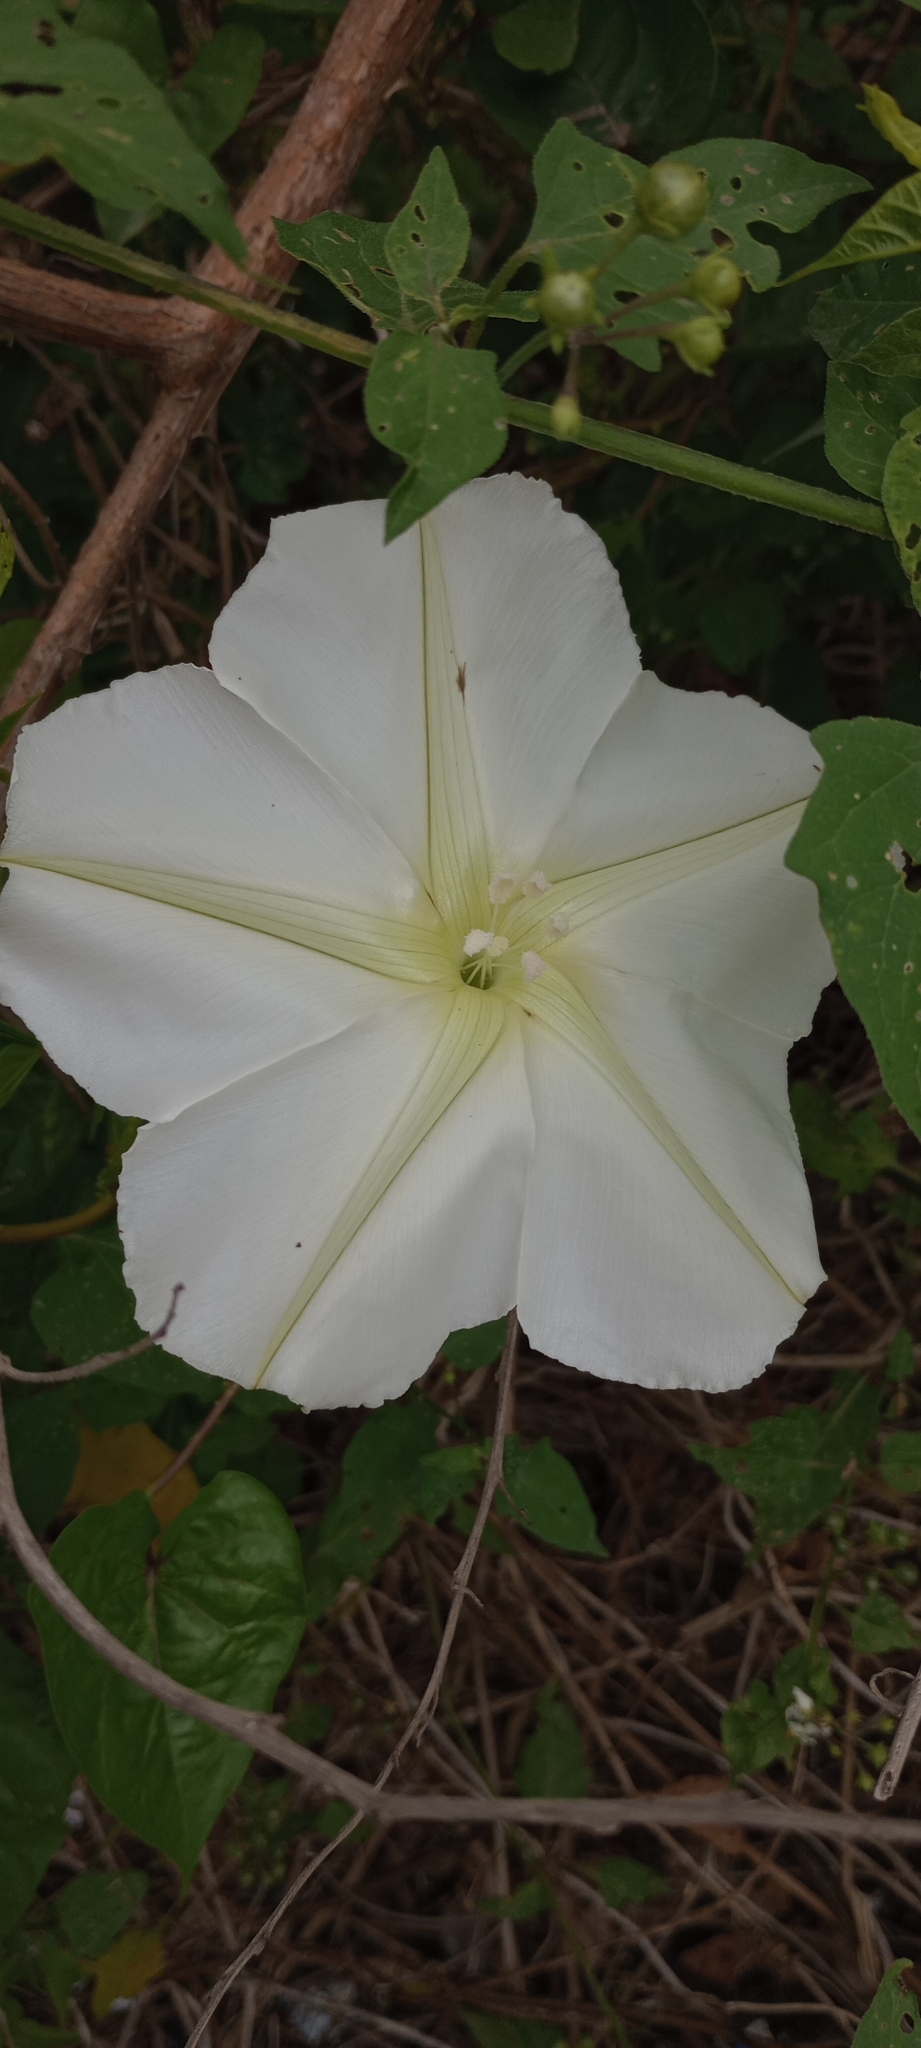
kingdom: Plantae
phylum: Tracheophyta
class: Magnoliopsida
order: Solanales
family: Convolvulaceae
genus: Ipomoea
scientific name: Ipomoea alba
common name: Moonflower
